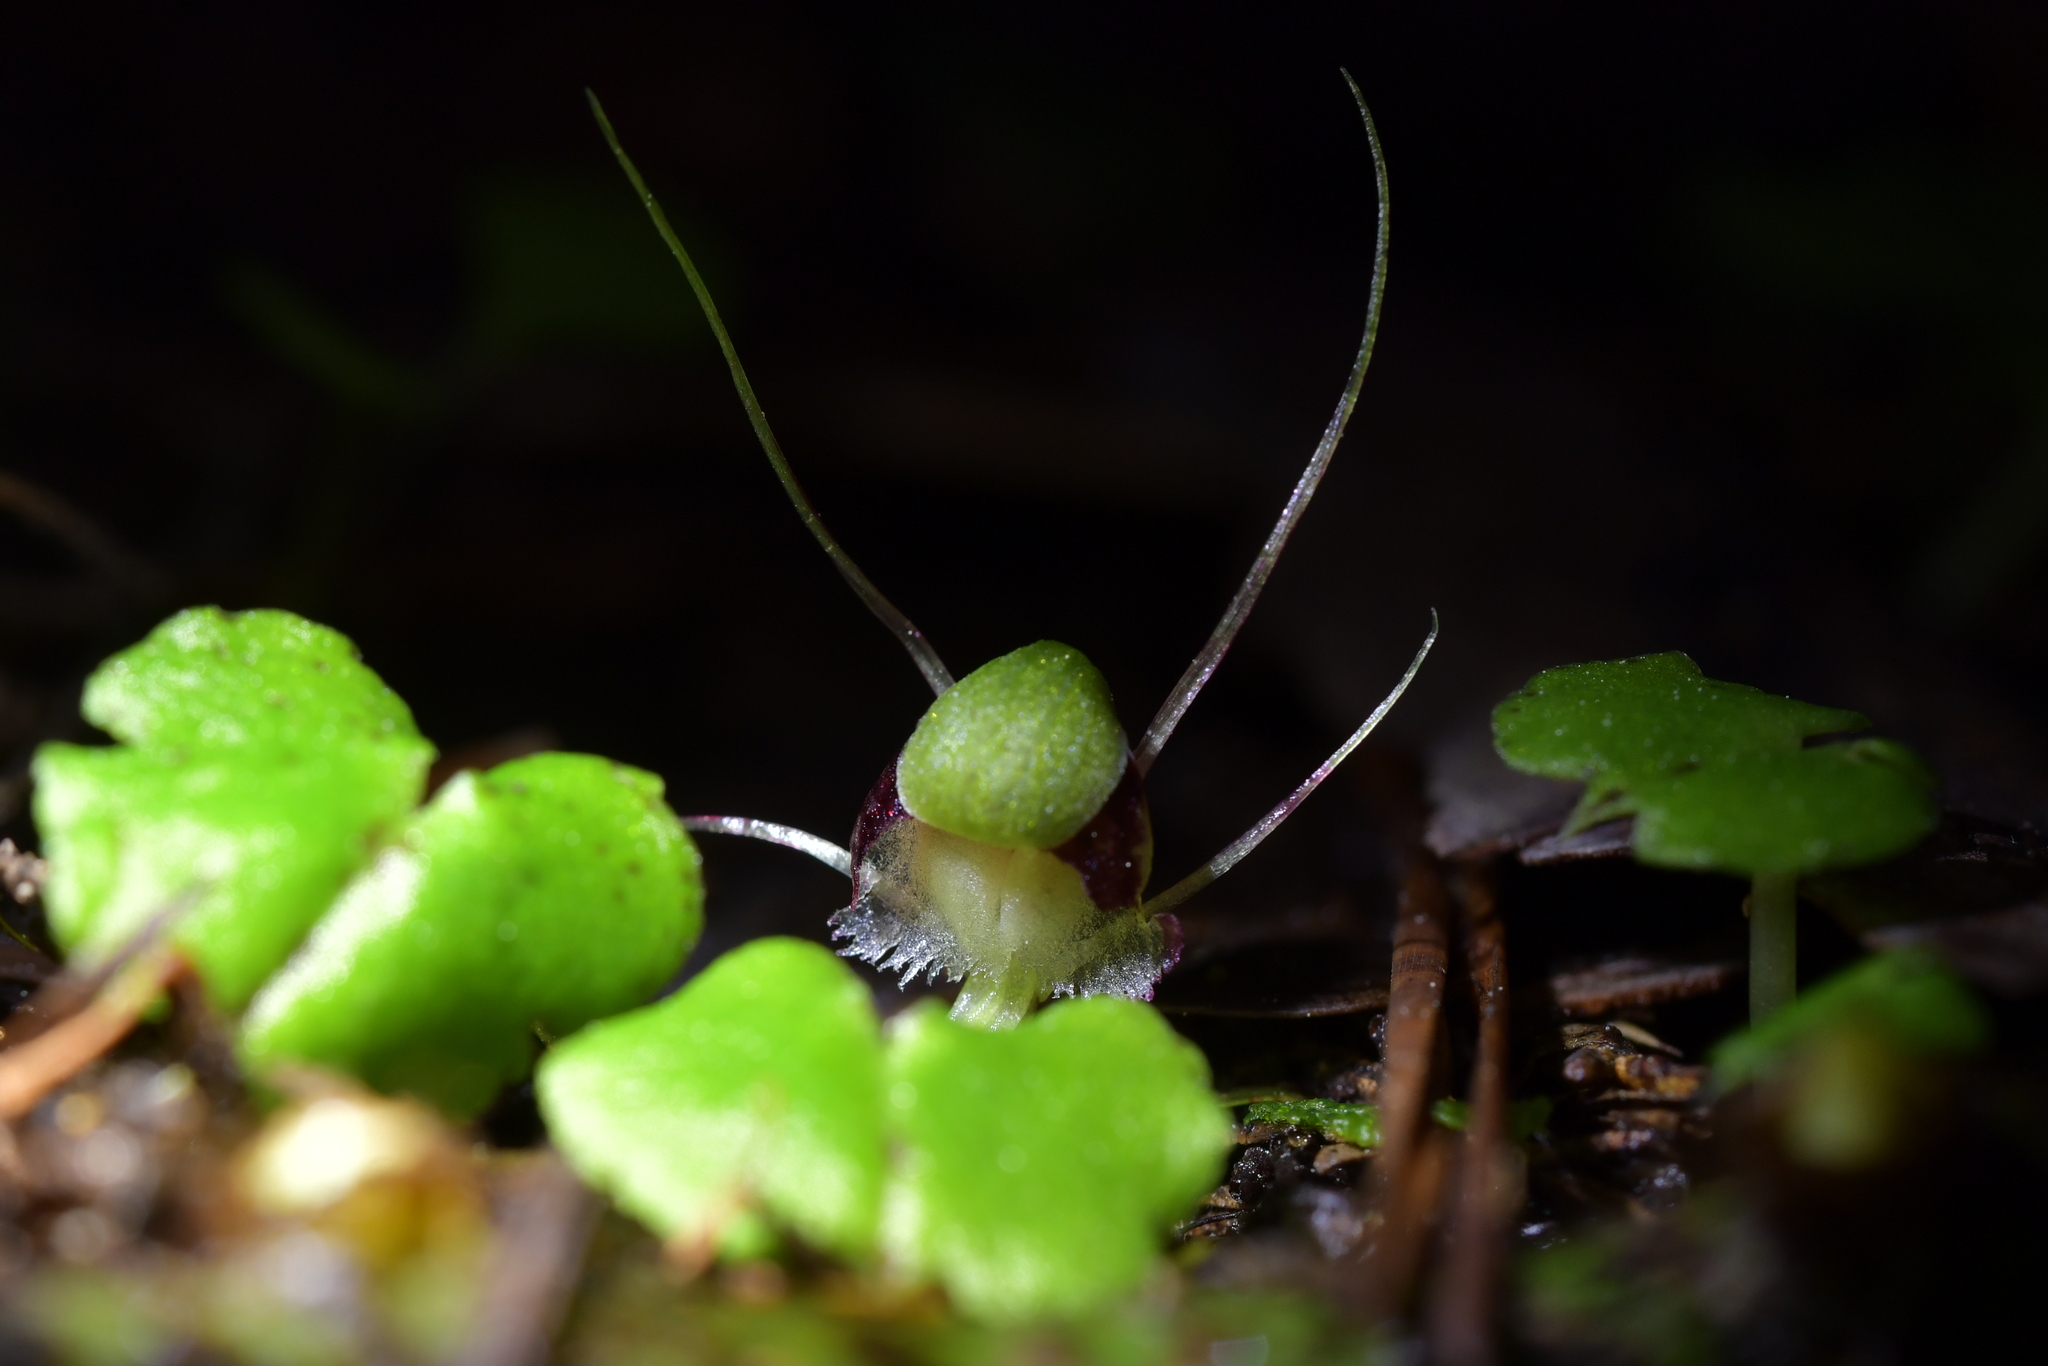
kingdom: Plantae
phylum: Tracheophyta
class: Liliopsida
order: Asparagales
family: Orchidaceae
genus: Corybas
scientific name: Corybas vitreus
